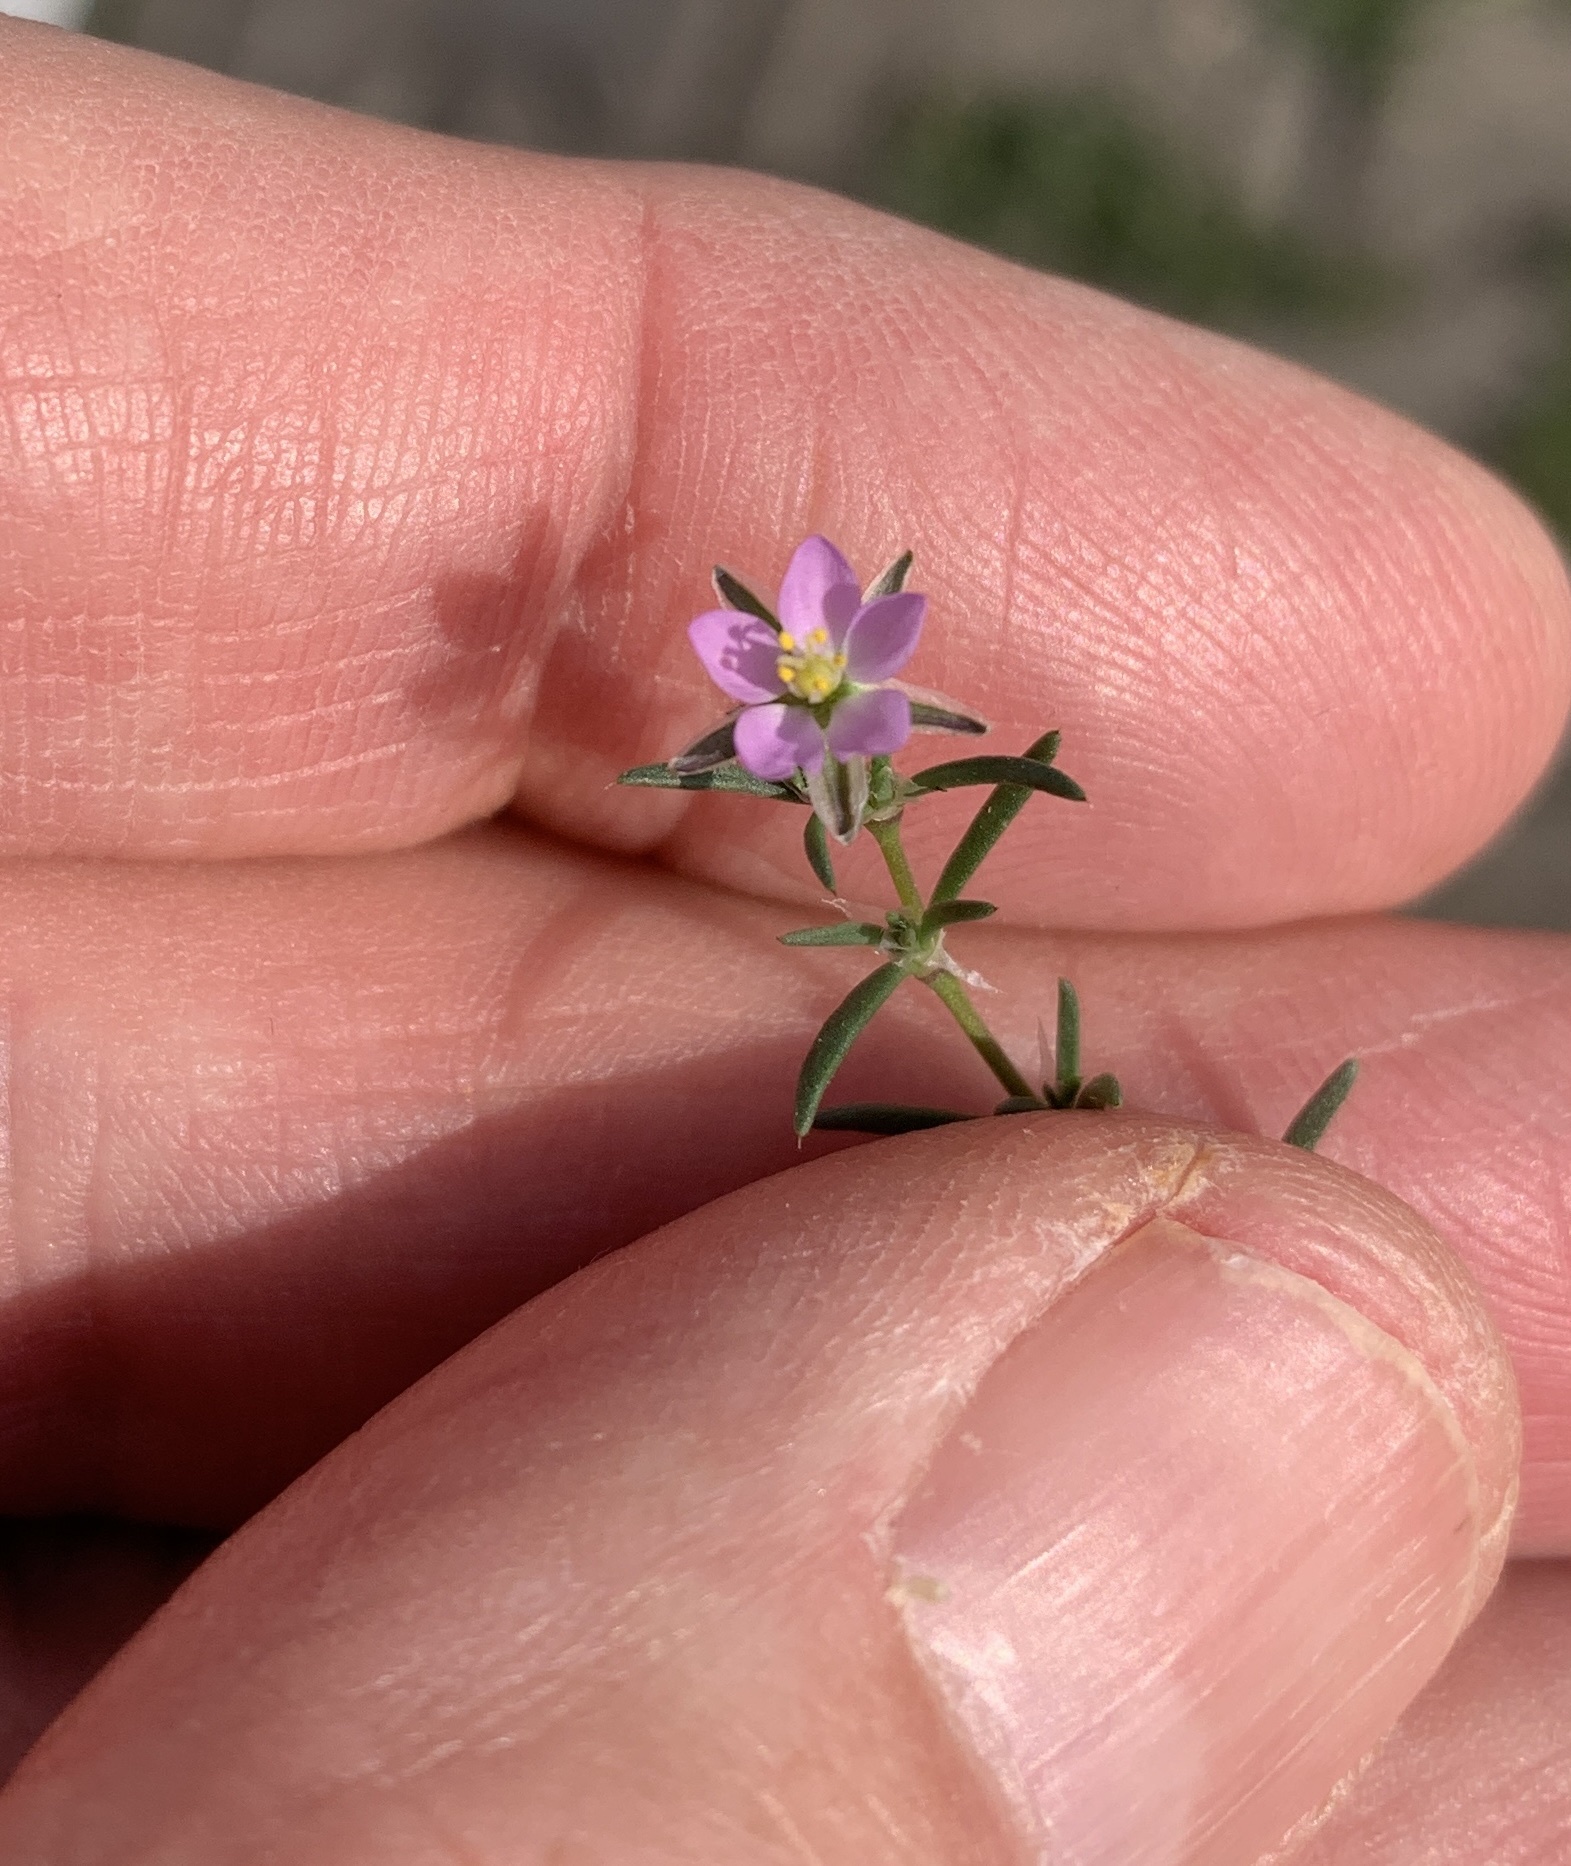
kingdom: Plantae
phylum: Tracheophyta
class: Magnoliopsida
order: Caryophyllales
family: Caryophyllaceae
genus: Spergularia
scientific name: Spergularia rubra
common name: Red sand-spurrey
